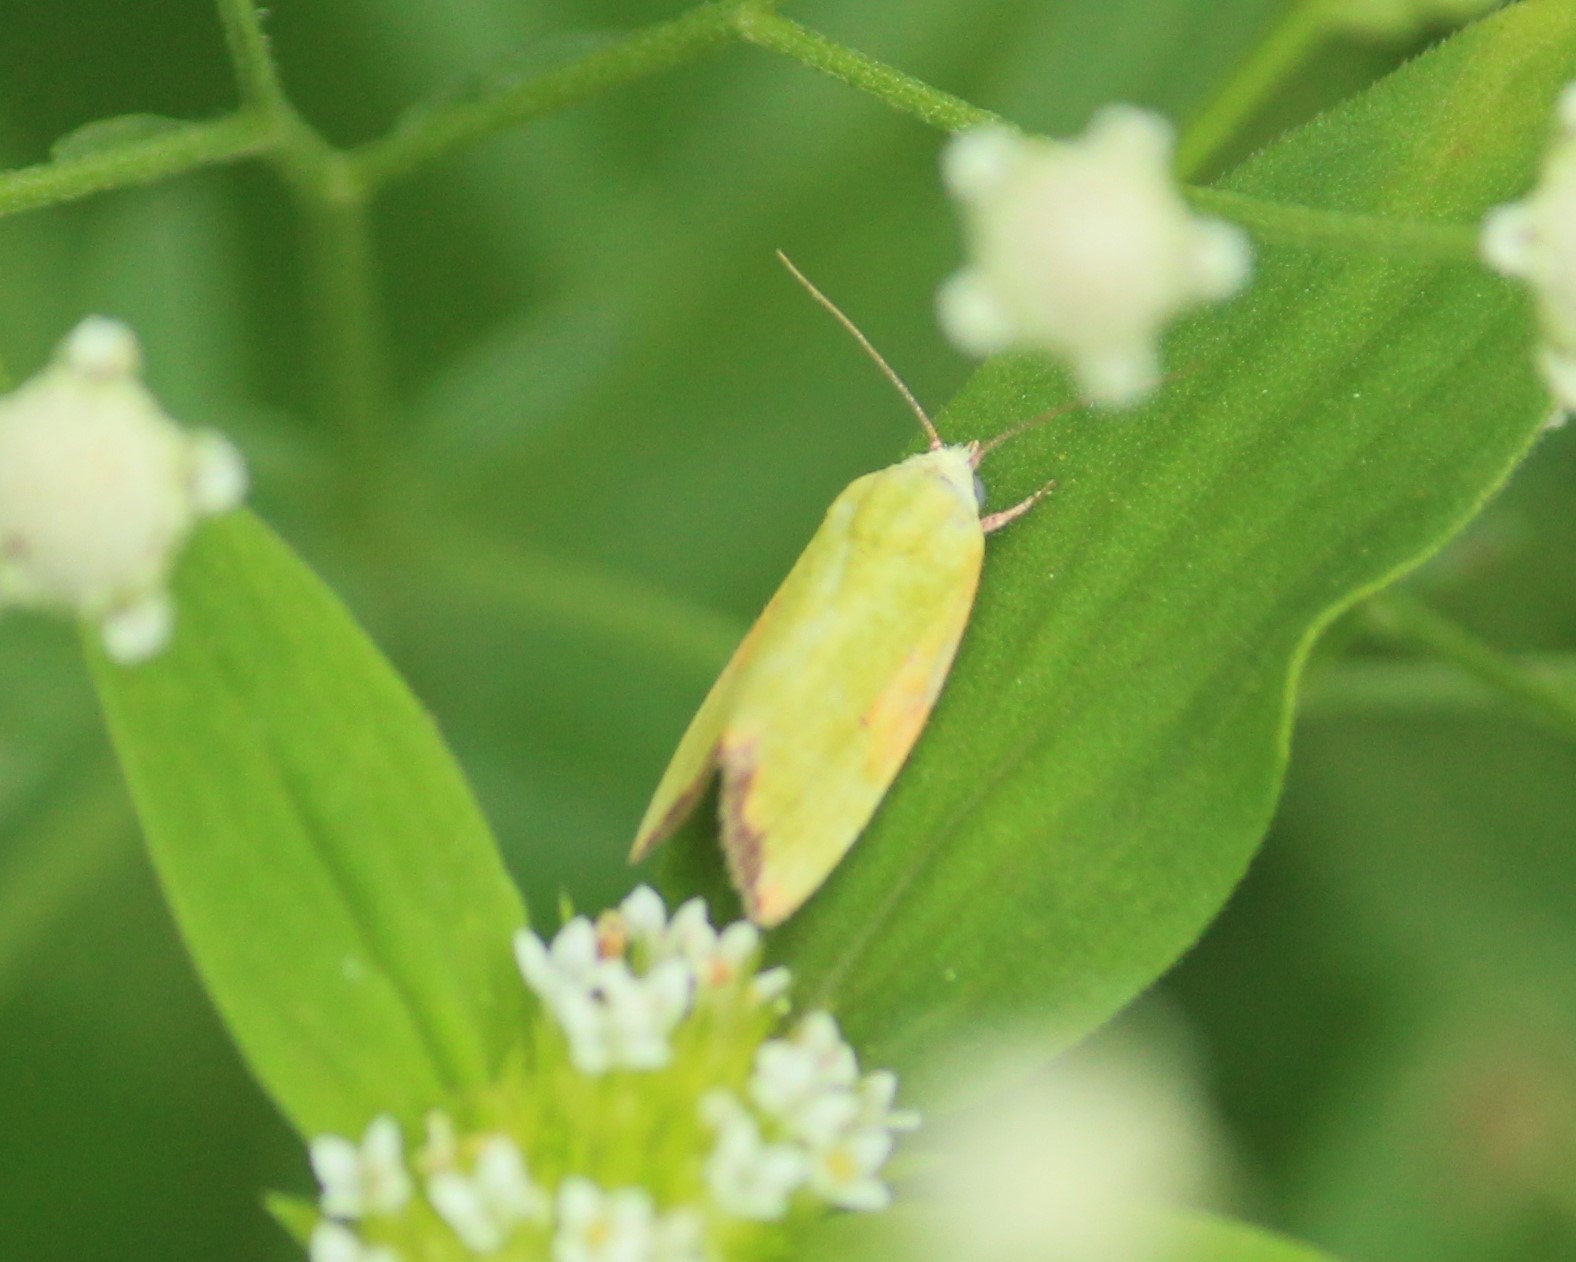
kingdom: Animalia
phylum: Arthropoda
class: Insecta
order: Lepidoptera
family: Nolidae
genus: Earias
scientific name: Earias cupreoviridis
